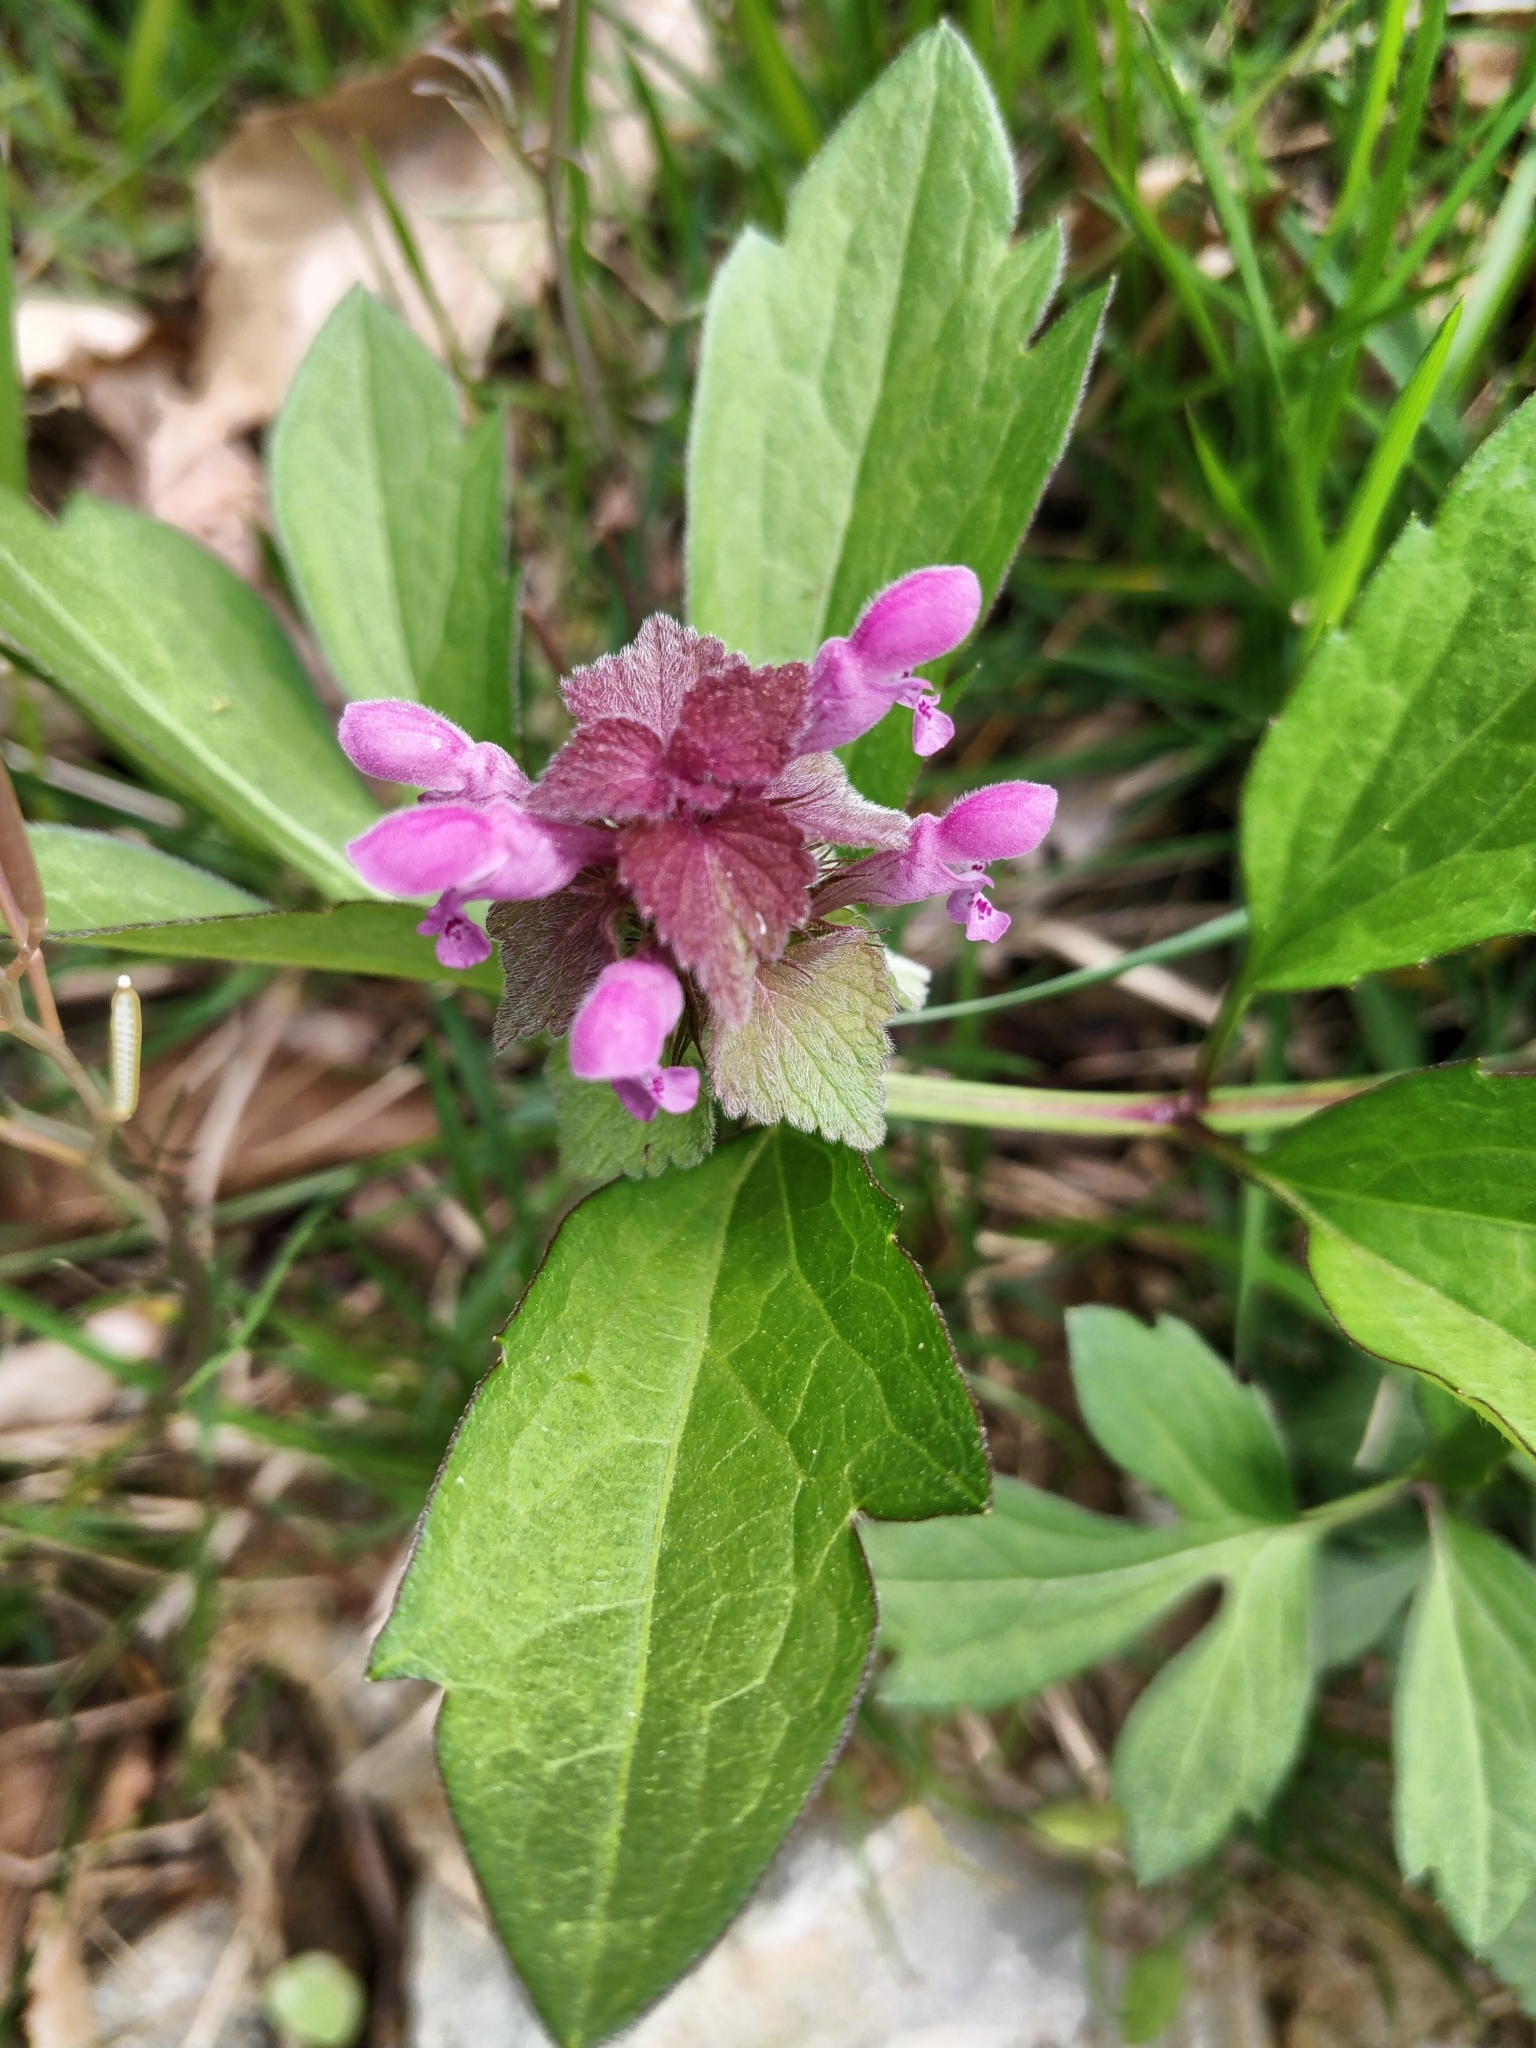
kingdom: Plantae
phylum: Tracheophyta
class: Magnoliopsida
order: Lamiales
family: Lamiaceae
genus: Lamium
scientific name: Lamium purpureum
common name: Red dead-nettle
